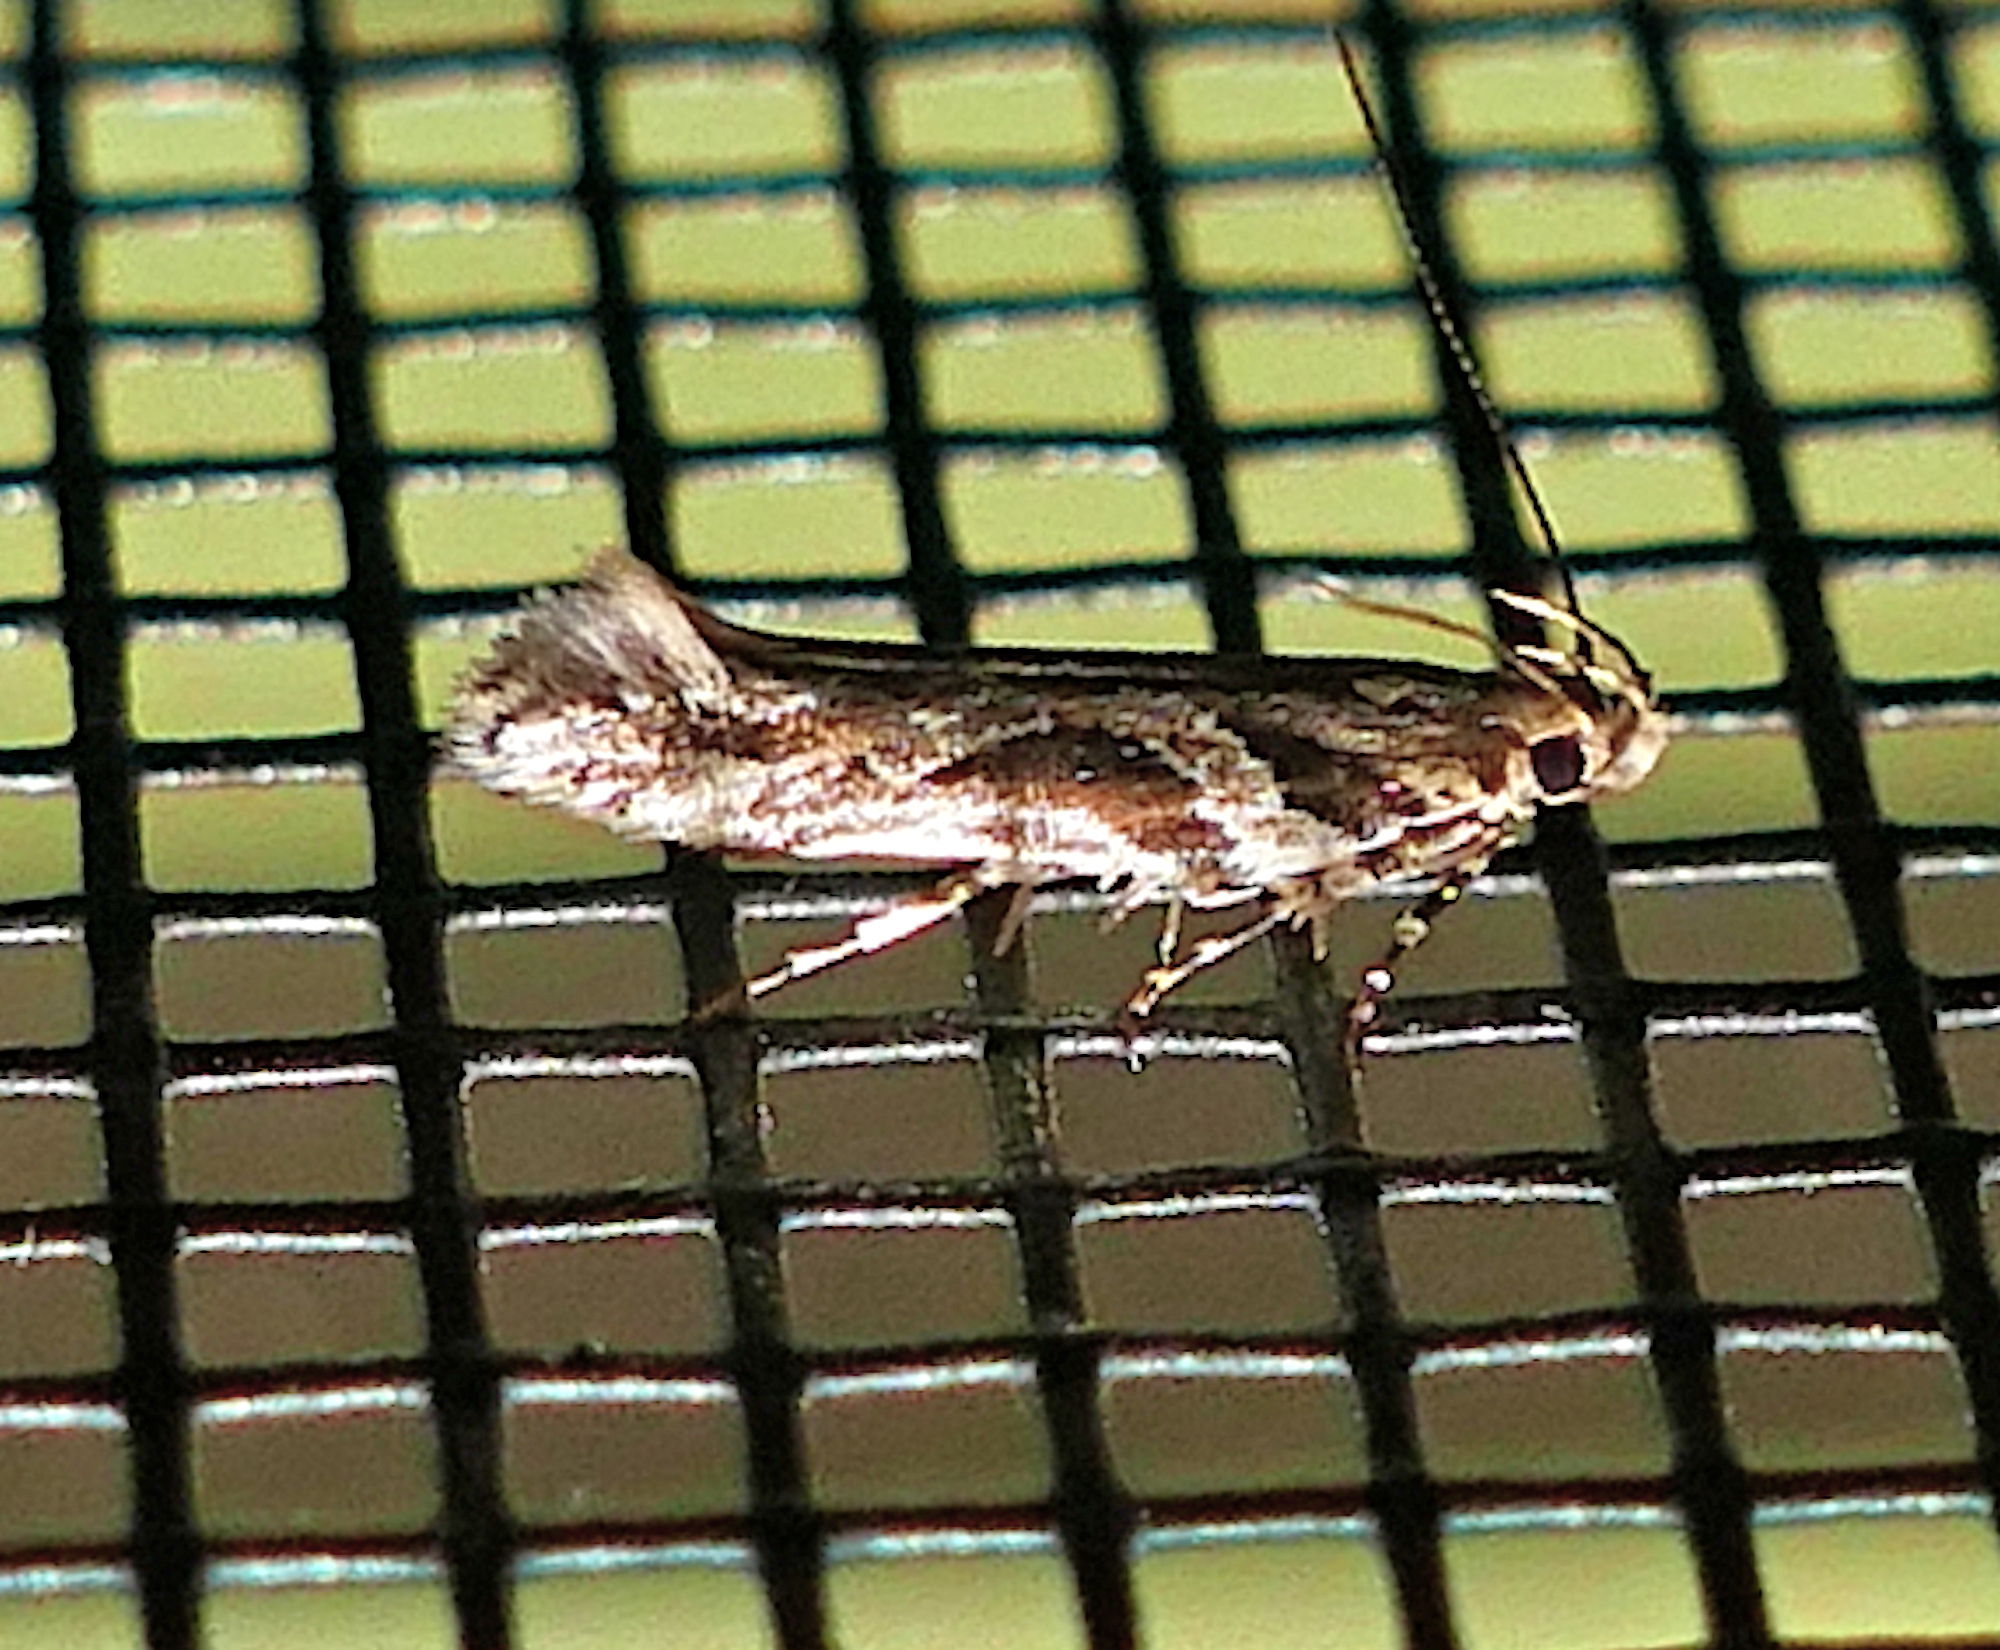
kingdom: Animalia
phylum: Arthropoda
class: Insecta
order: Lepidoptera
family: Gelechiidae
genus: Aristotelia
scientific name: Aristotelia ivae
